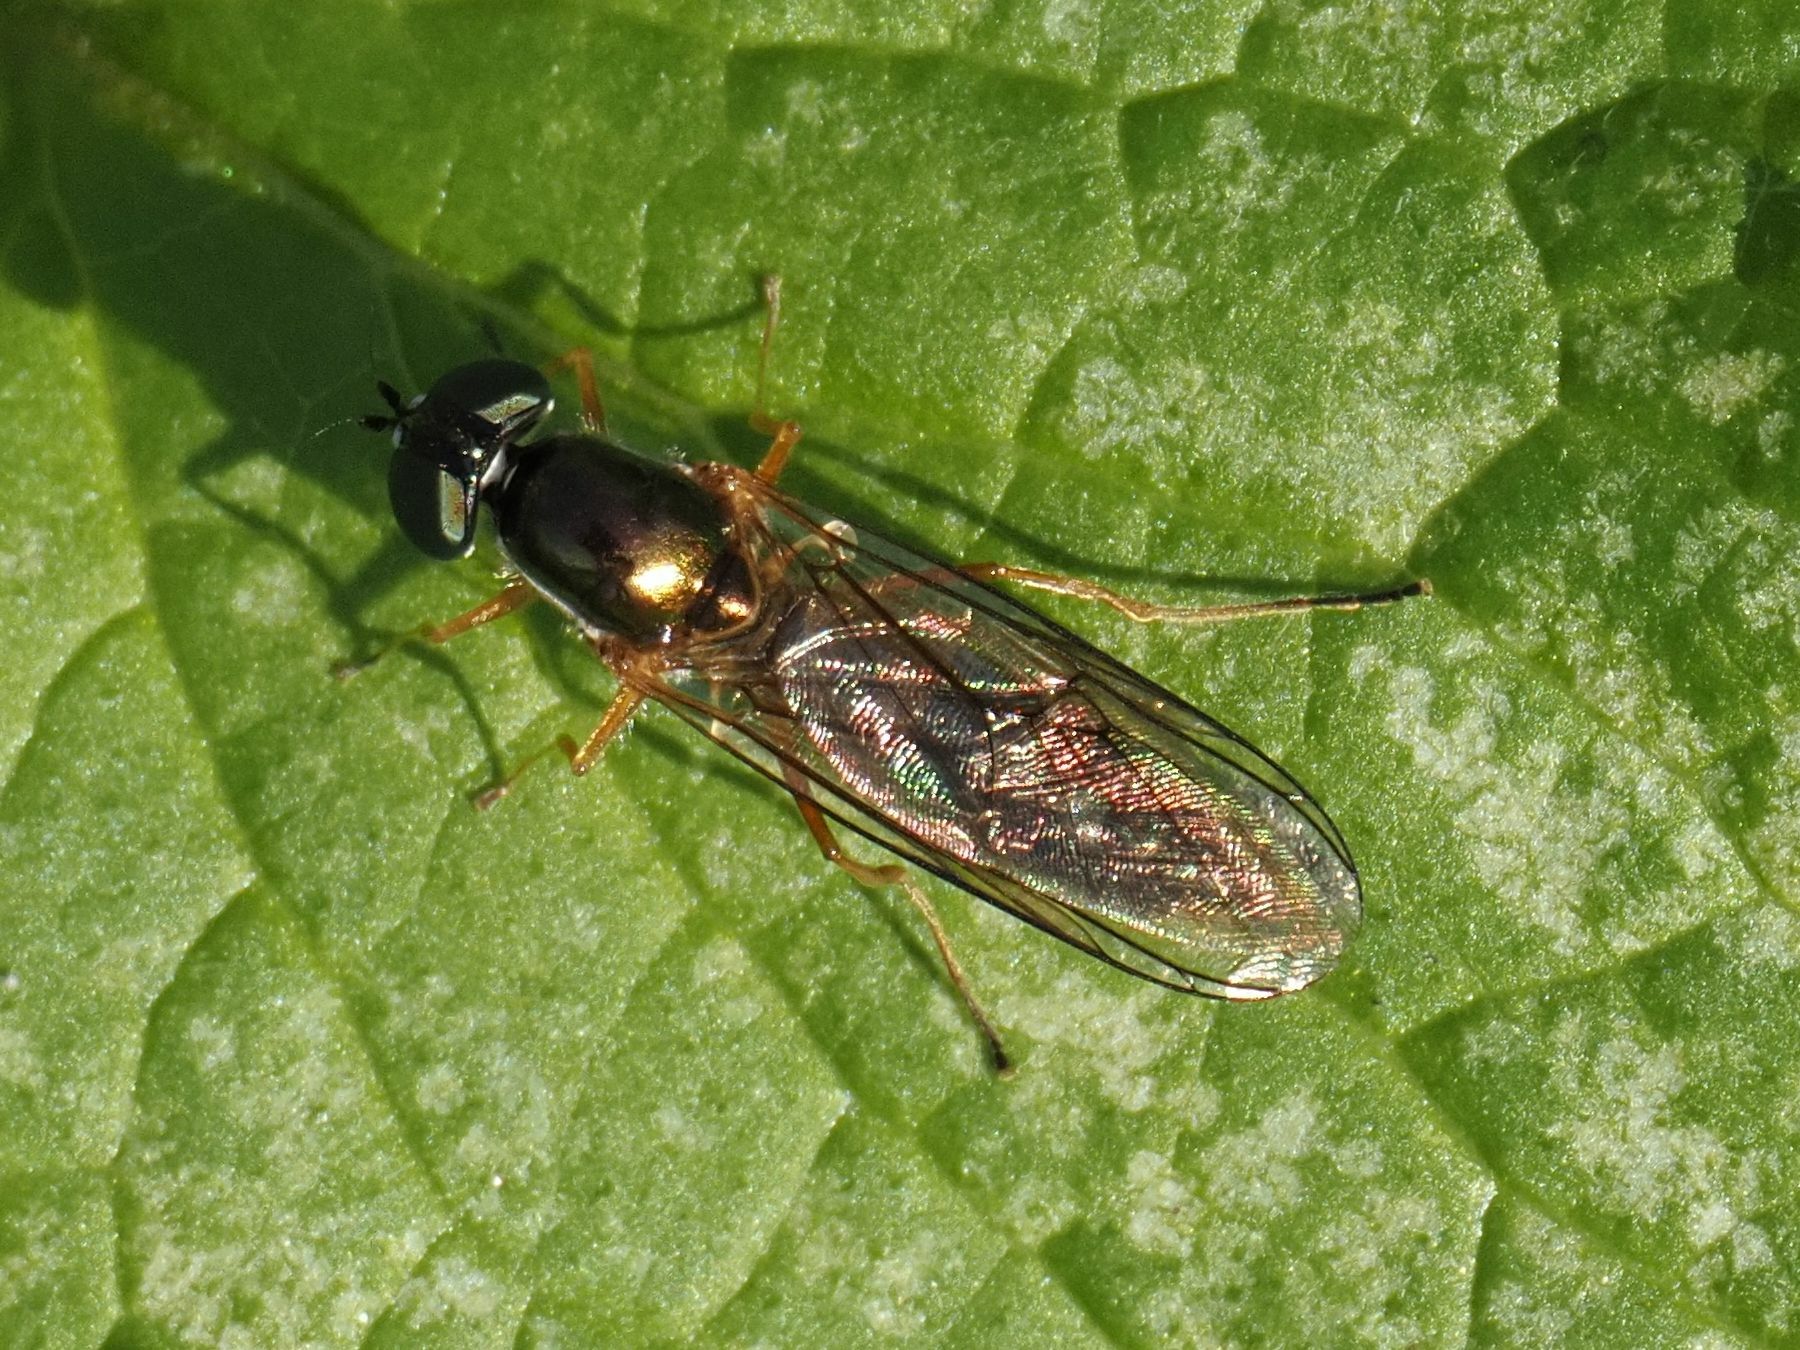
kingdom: Animalia
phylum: Arthropoda
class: Insecta
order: Diptera
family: Stratiomyidae
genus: Sargus
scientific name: Sargus bipunctatus
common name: Twin-spot centurion
